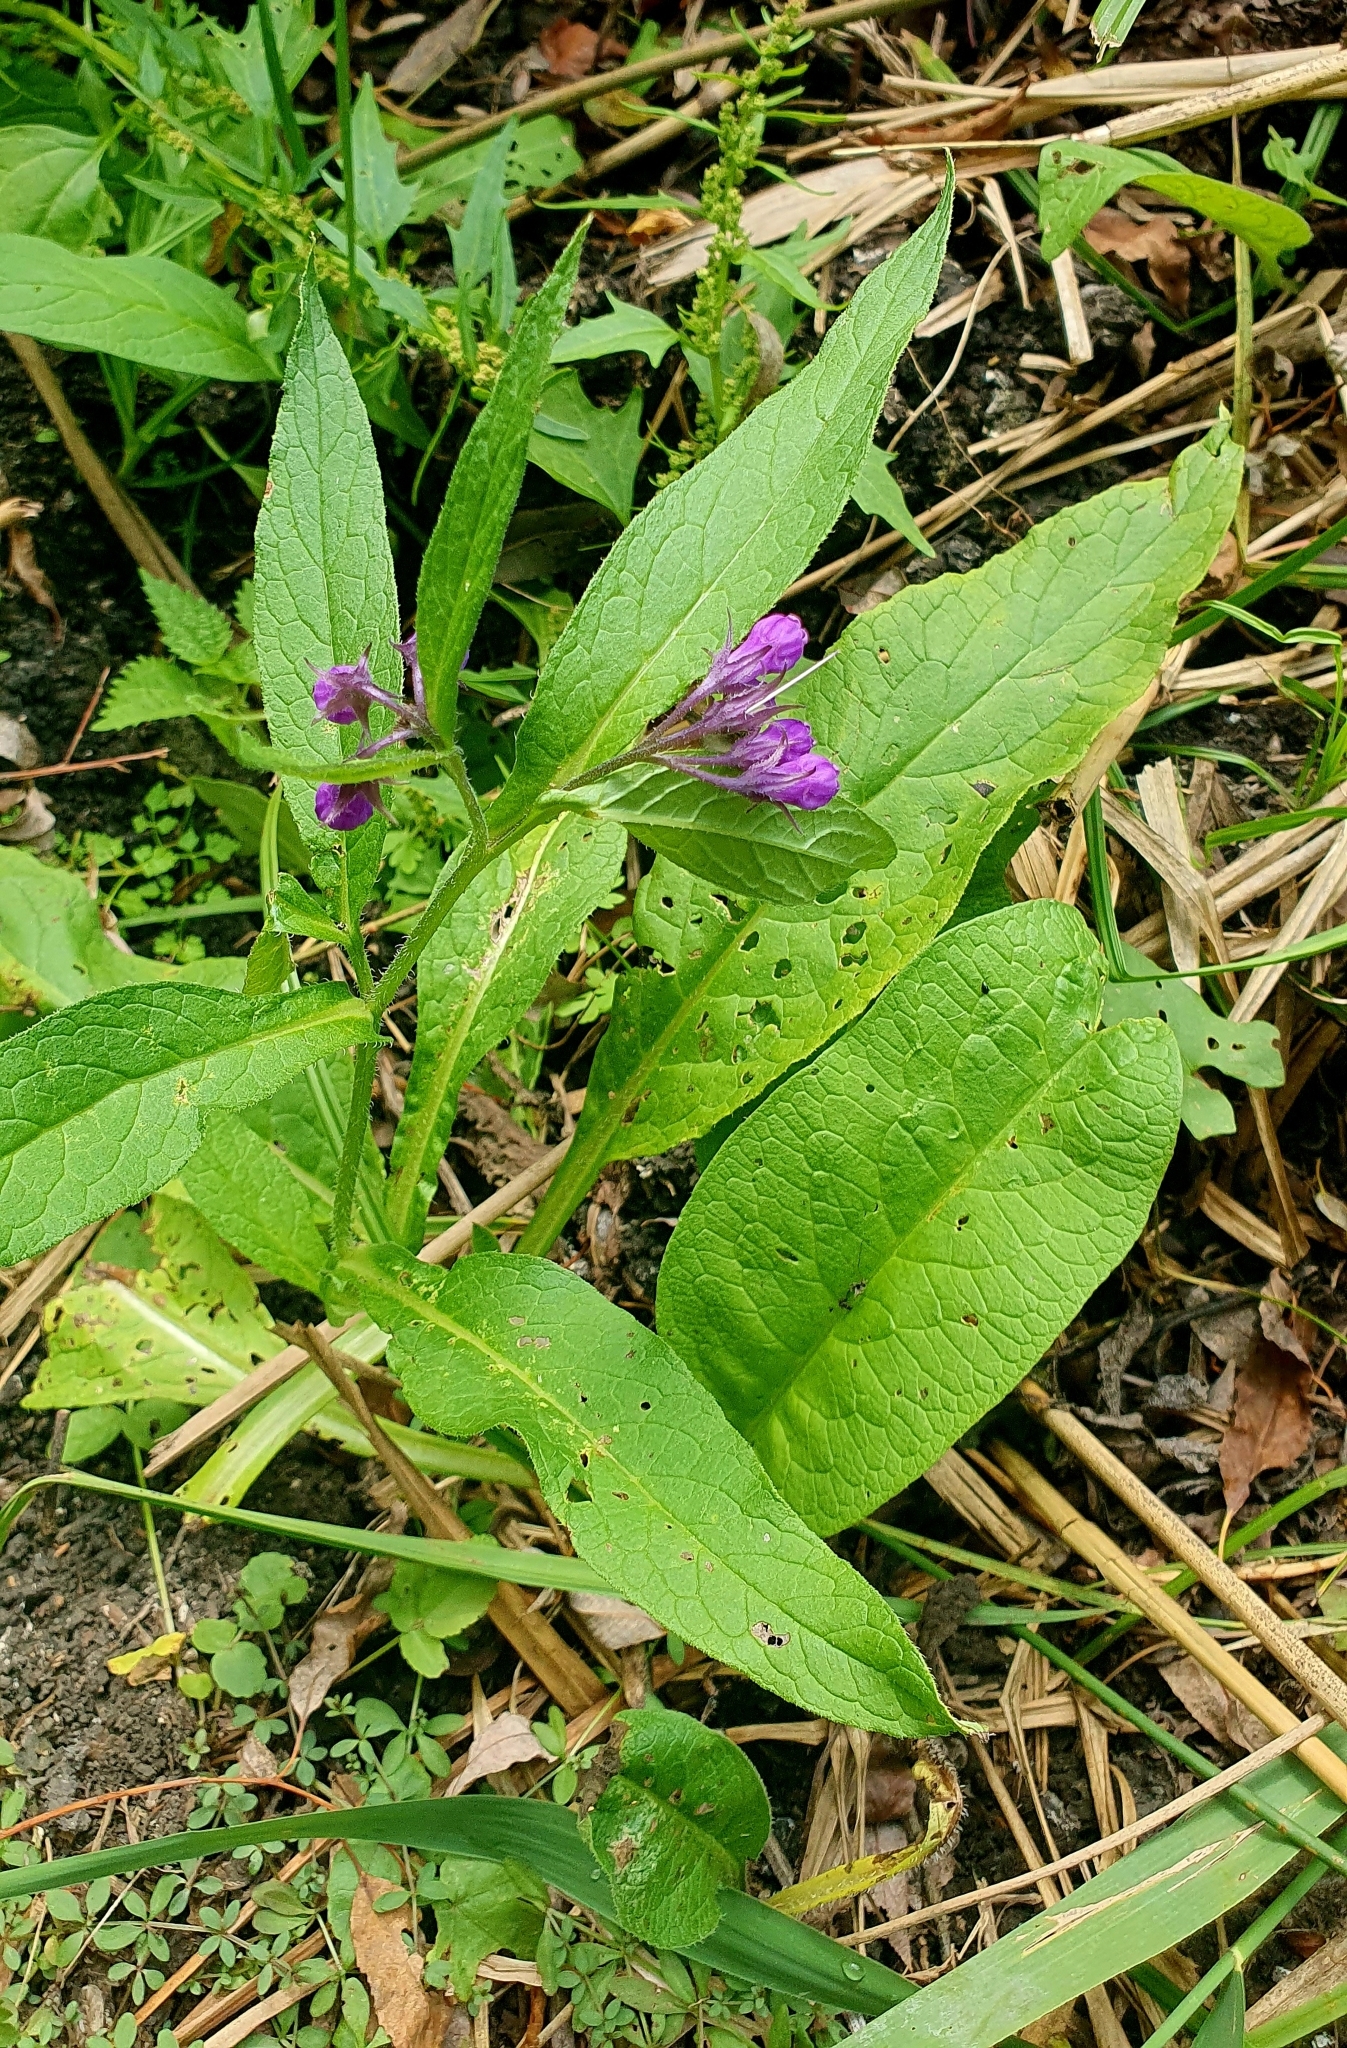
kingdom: Plantae
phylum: Tracheophyta
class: Magnoliopsida
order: Boraginales
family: Boraginaceae
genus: Symphytum
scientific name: Symphytum officinale
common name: Common comfrey
